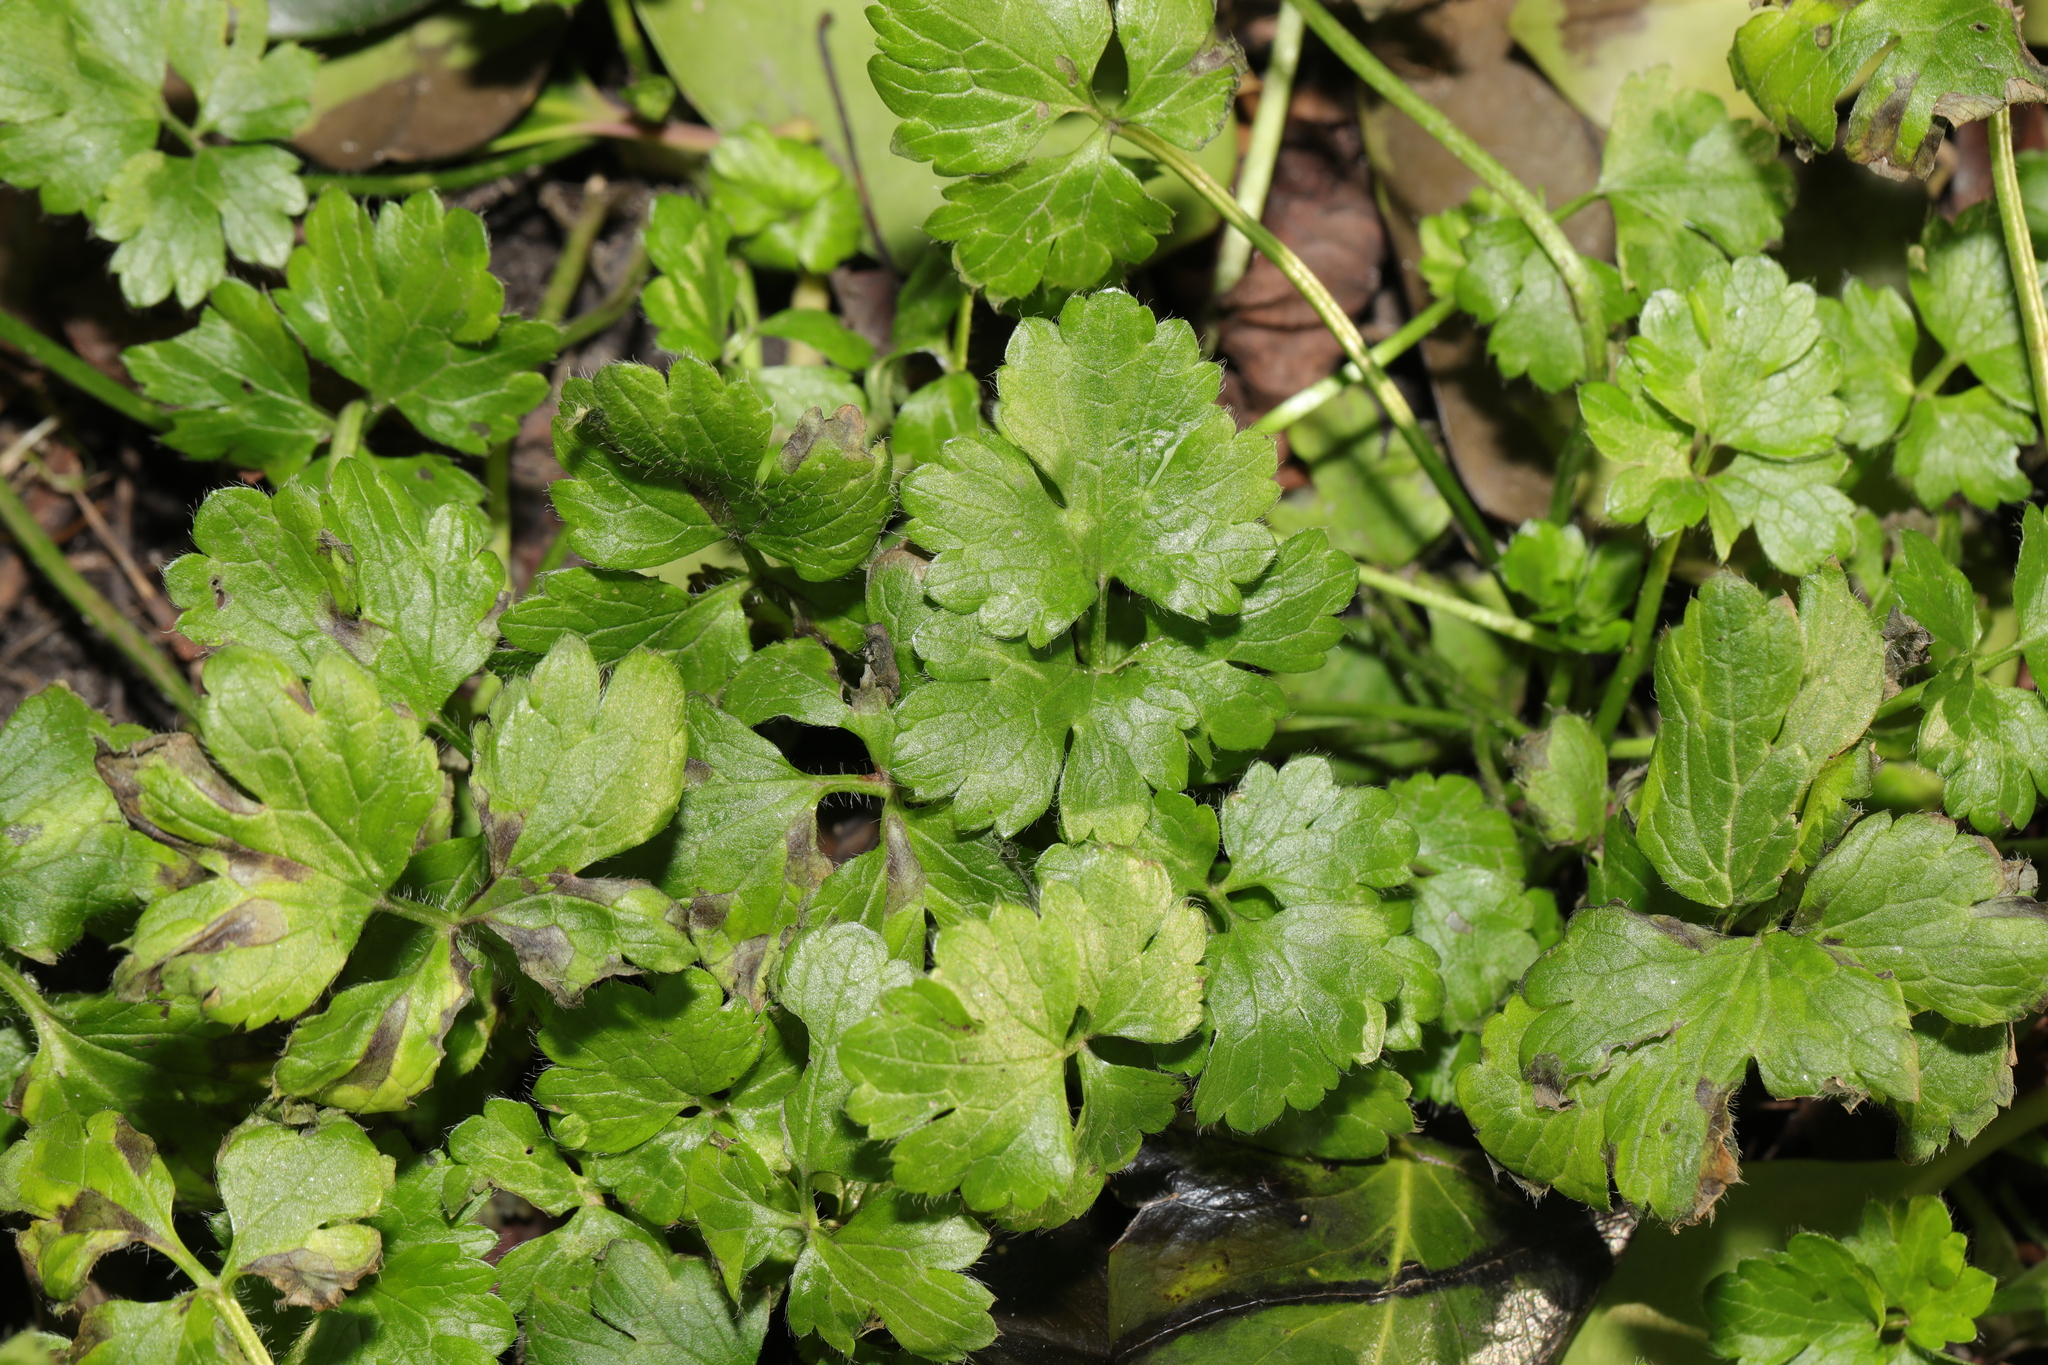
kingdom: Plantae
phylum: Tracheophyta
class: Magnoliopsida
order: Ranunculales
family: Ranunculaceae
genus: Ranunculus
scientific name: Ranunculus repens
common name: Creeping buttercup
